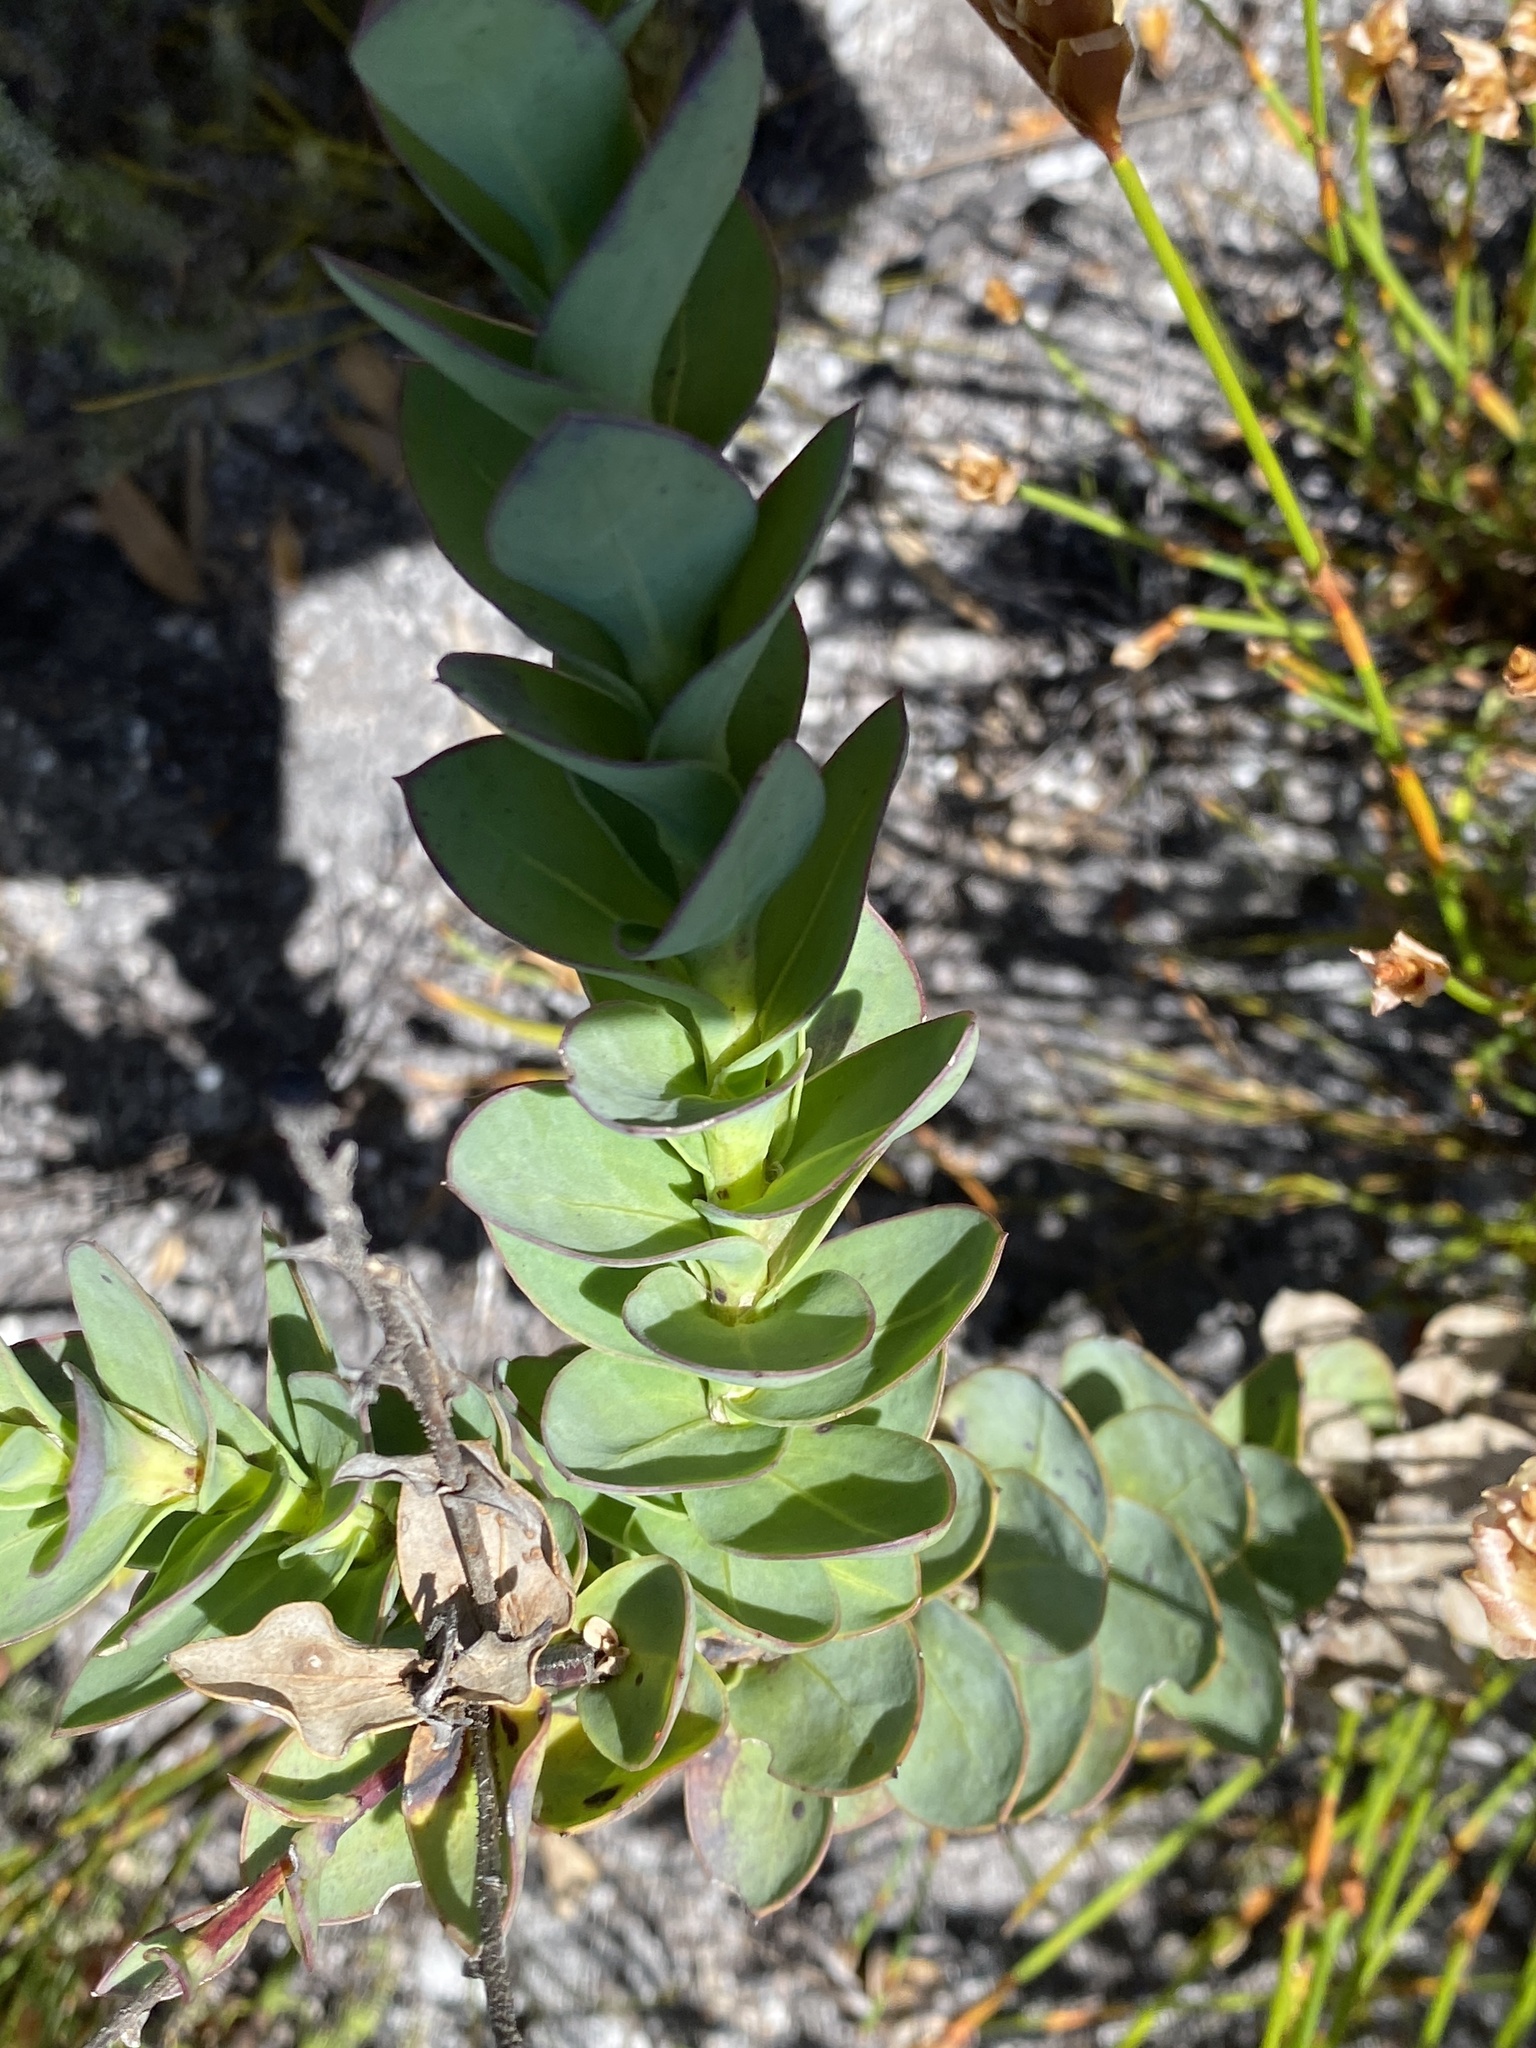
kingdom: Plantae
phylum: Tracheophyta
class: Magnoliopsida
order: Asterales
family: Asteraceae
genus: Osteospermum
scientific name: Osteospermum rotundifolium
